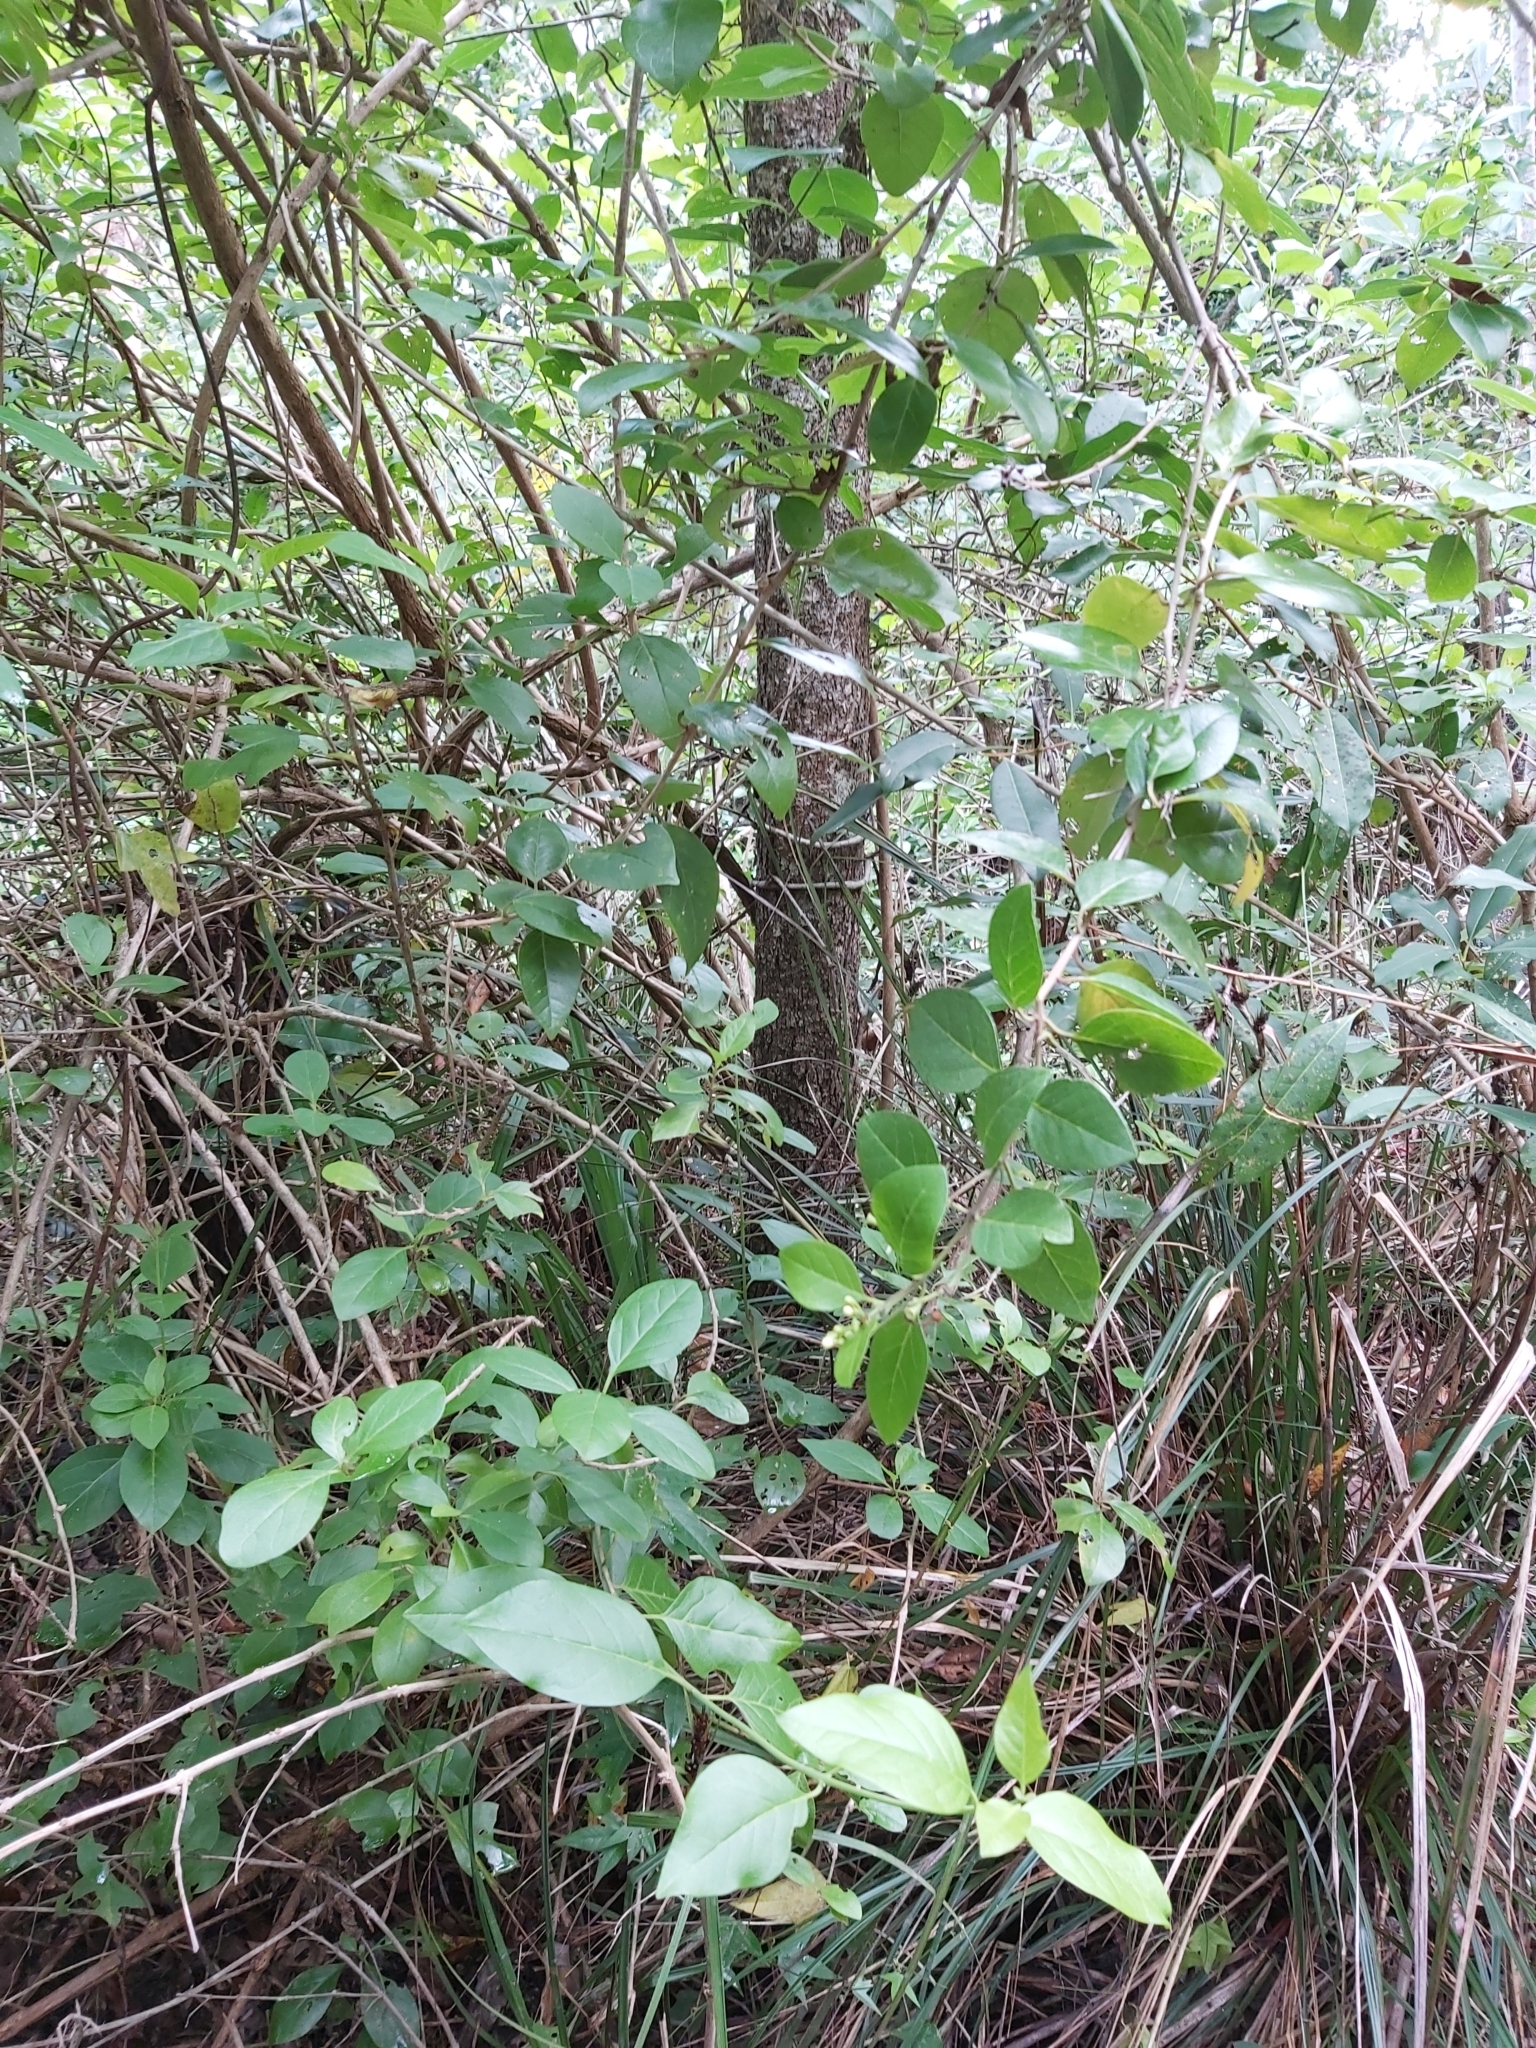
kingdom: Plantae
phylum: Tracheophyta
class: Magnoliopsida
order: Lamiales
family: Lamiaceae
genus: Volkameria
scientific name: Volkameria inermis
